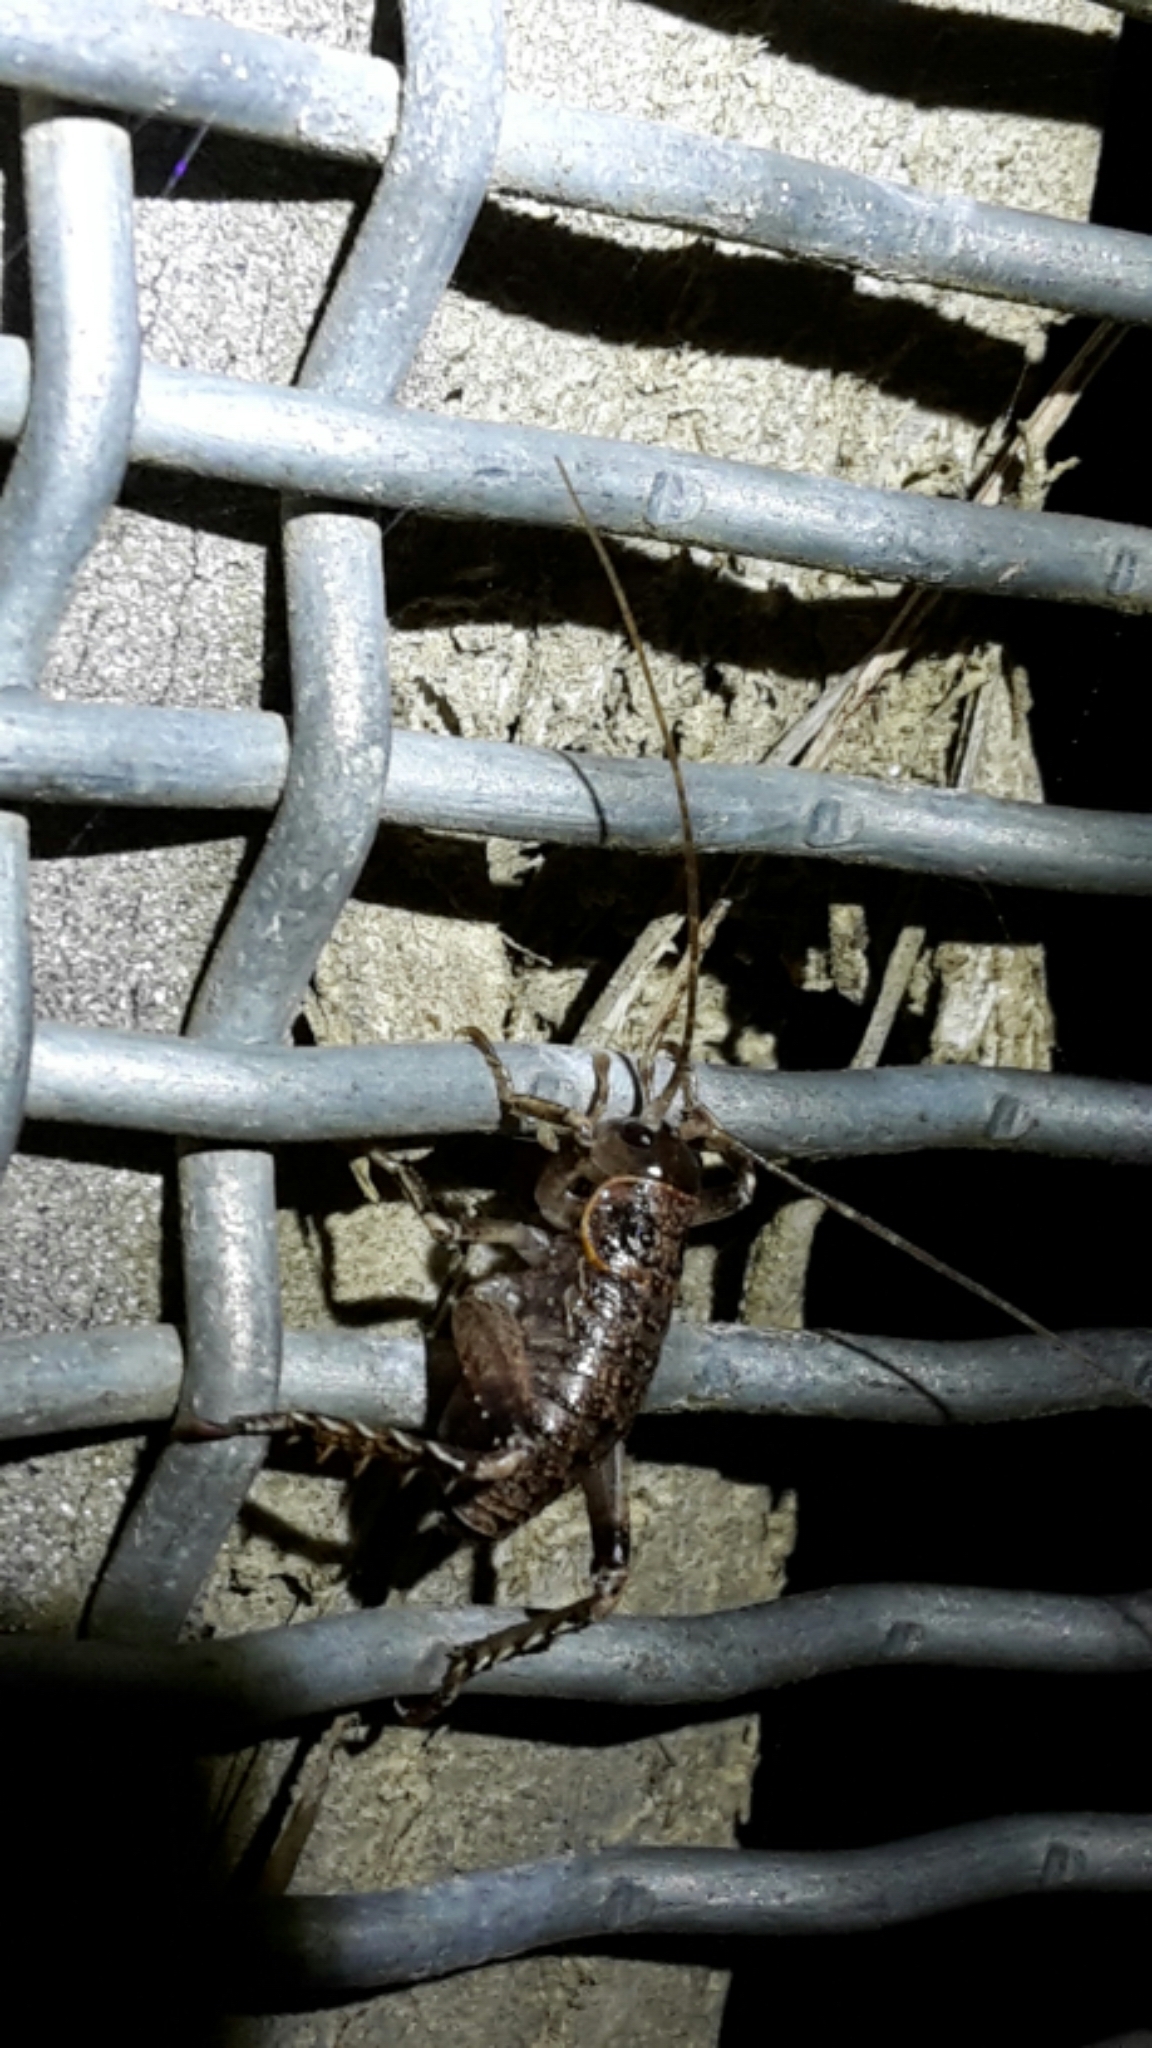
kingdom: Animalia
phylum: Arthropoda
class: Insecta
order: Orthoptera
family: Anostostomatidae
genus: Deinacrida
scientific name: Deinacrida rugosa
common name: Stephens island weta
